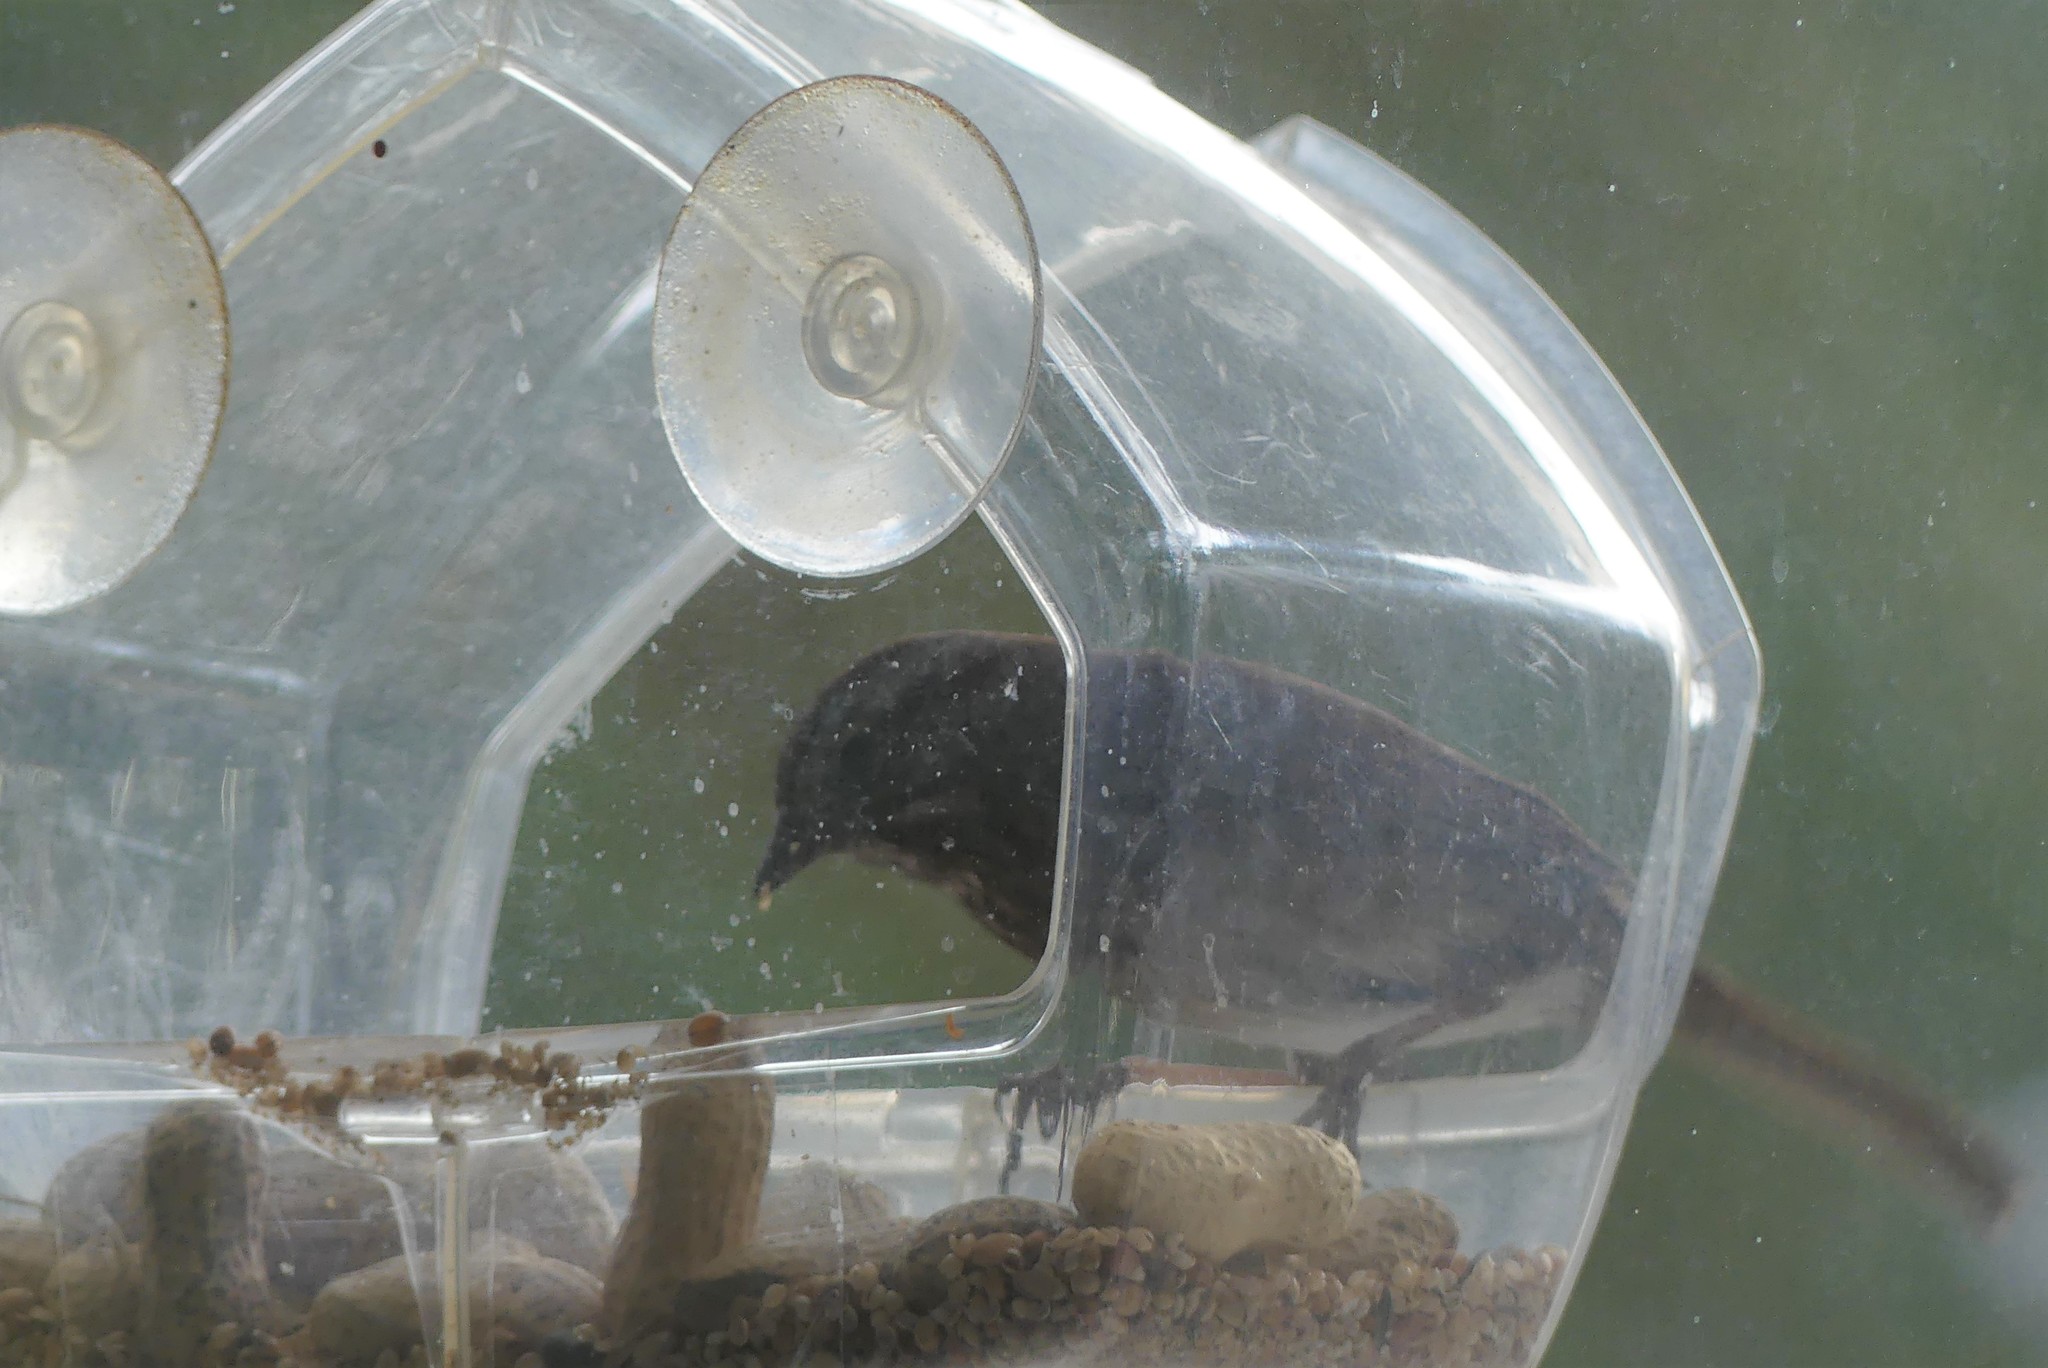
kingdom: Animalia
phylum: Chordata
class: Aves
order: Passeriformes
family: Passerellidae
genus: Melospiza
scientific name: Melospiza melodia
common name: Song sparrow
